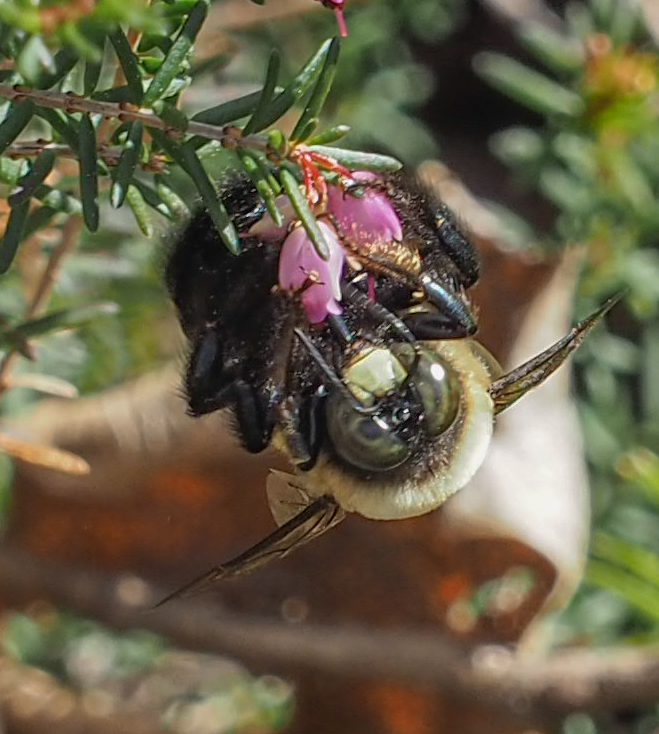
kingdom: Animalia
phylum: Arthropoda
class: Insecta
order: Hymenoptera
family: Apidae
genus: Xylocopa
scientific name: Xylocopa virginica
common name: Carpenter bee
